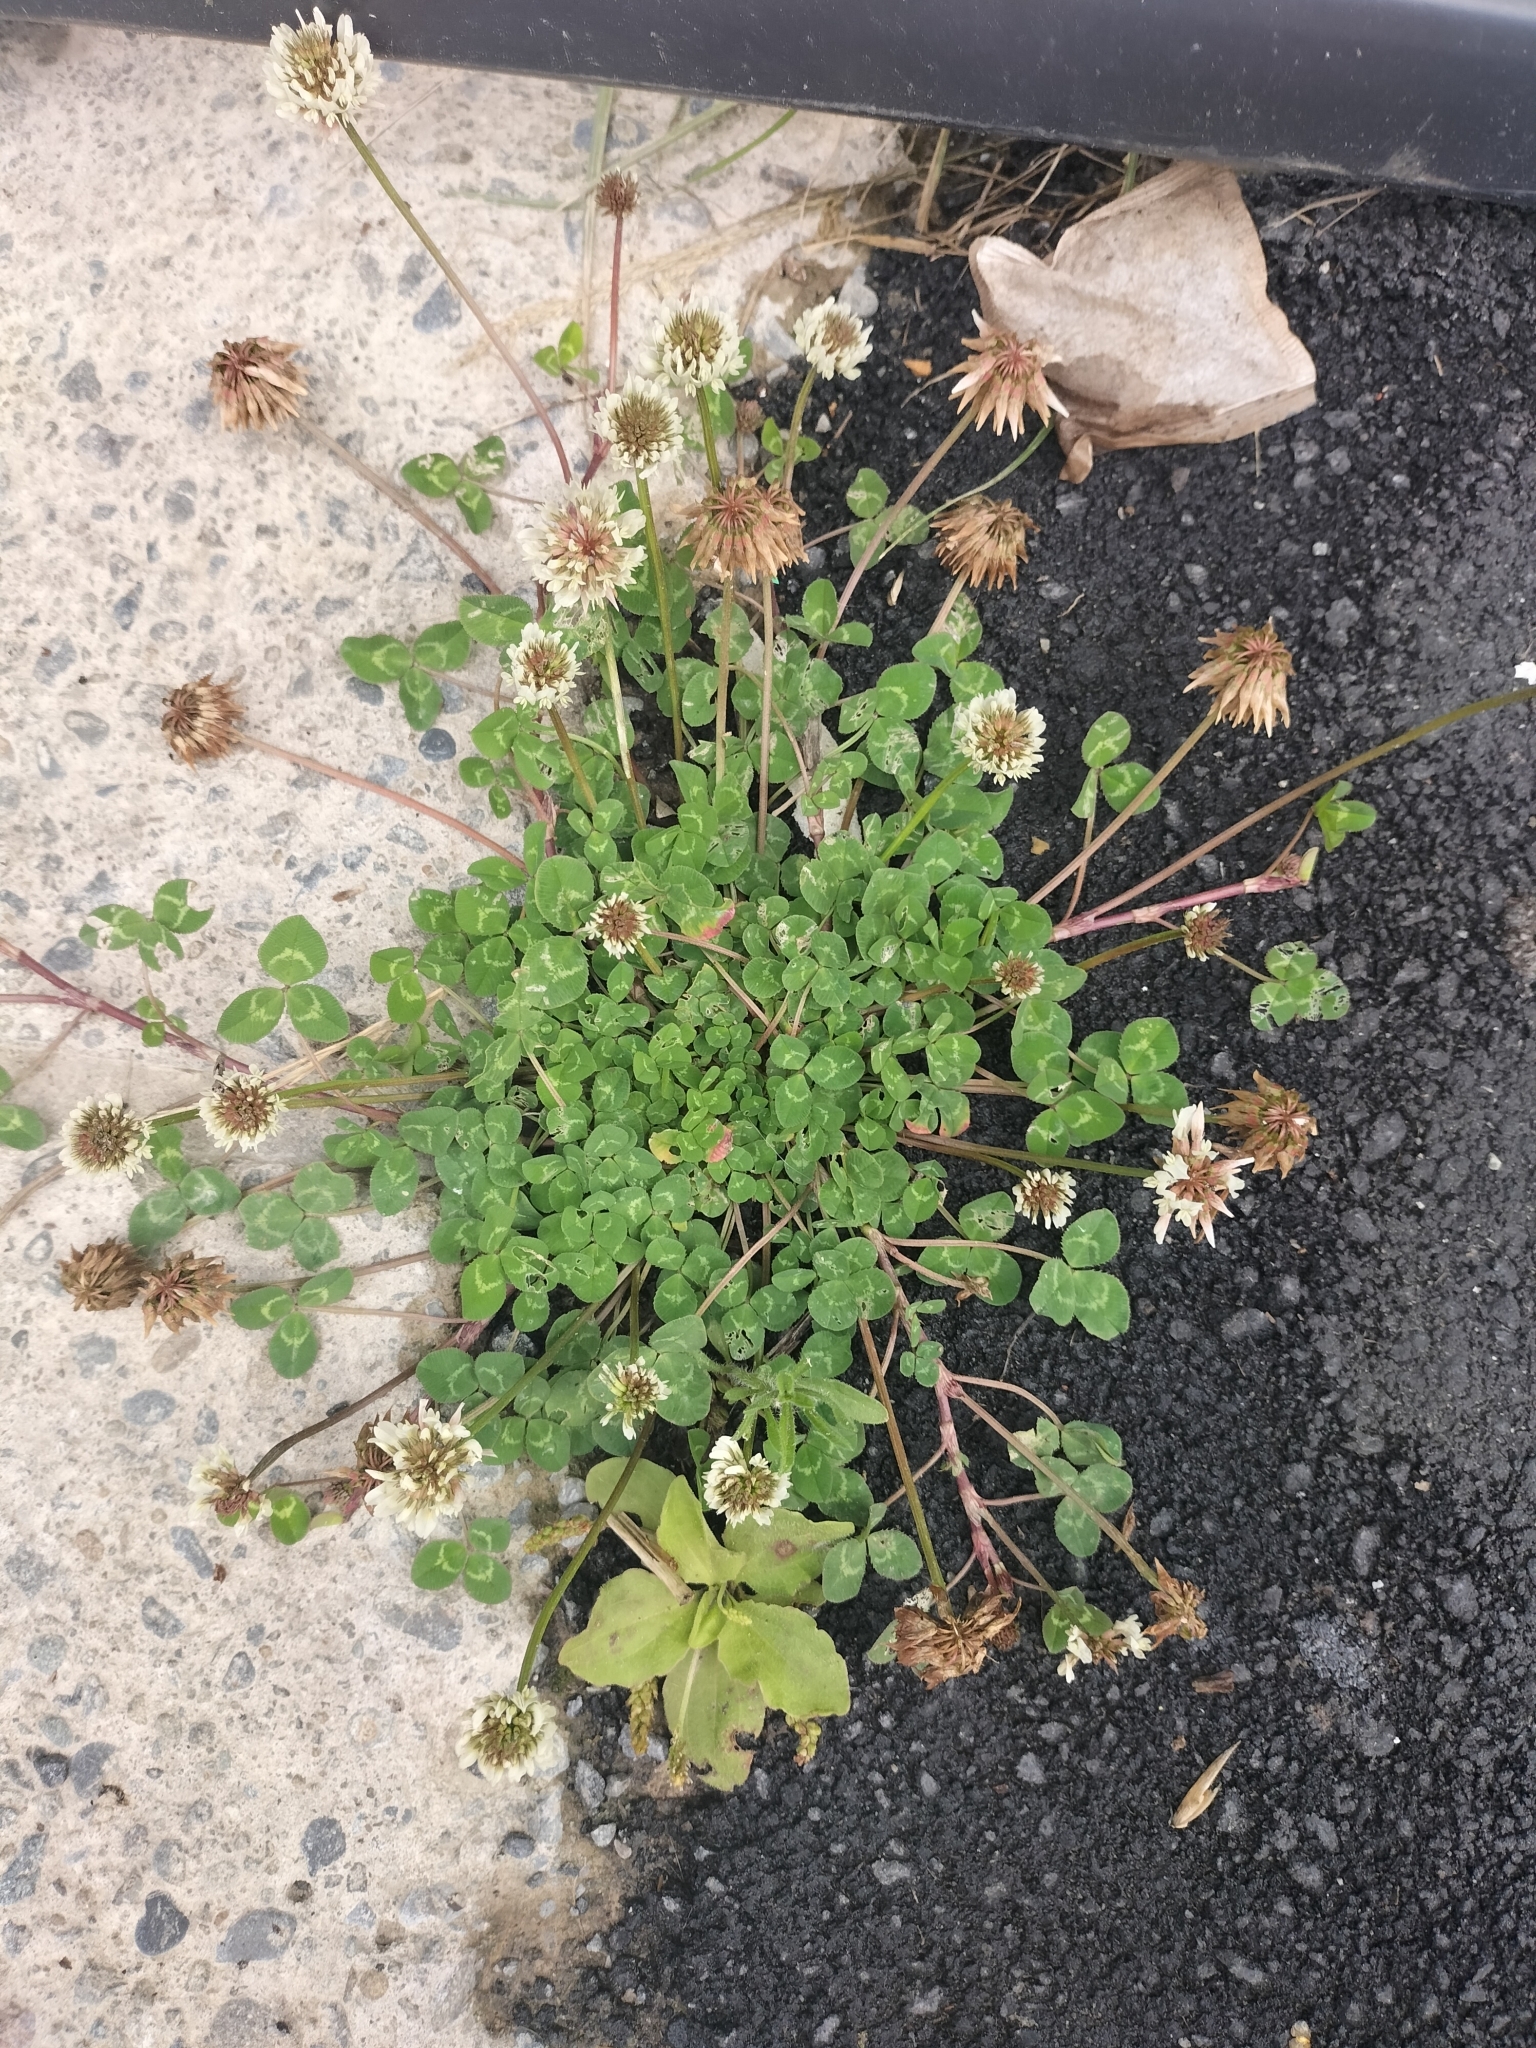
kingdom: Plantae
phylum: Tracheophyta
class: Magnoliopsida
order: Fabales
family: Fabaceae
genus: Trifolium
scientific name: Trifolium repens
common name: White clover
